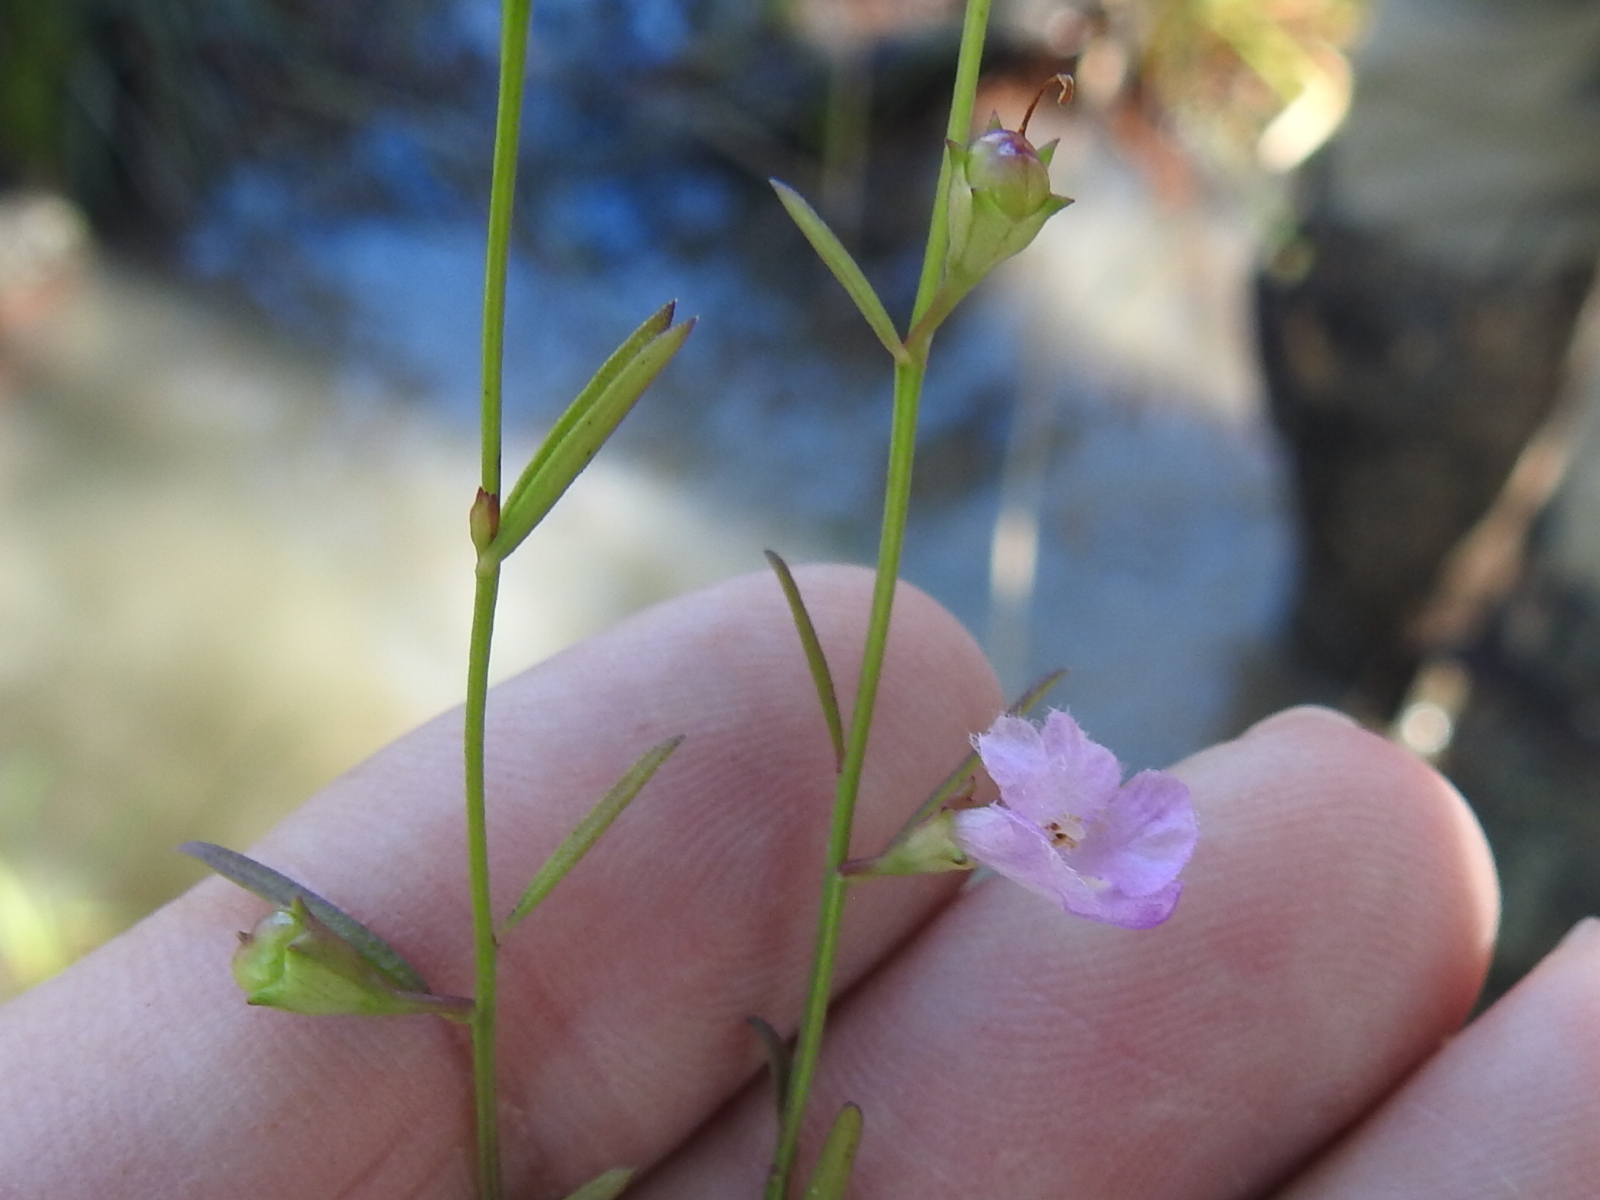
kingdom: Plantae
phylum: Tracheophyta
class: Magnoliopsida
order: Lamiales
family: Orobanchaceae
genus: Agalinis
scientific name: Agalinis viridis
